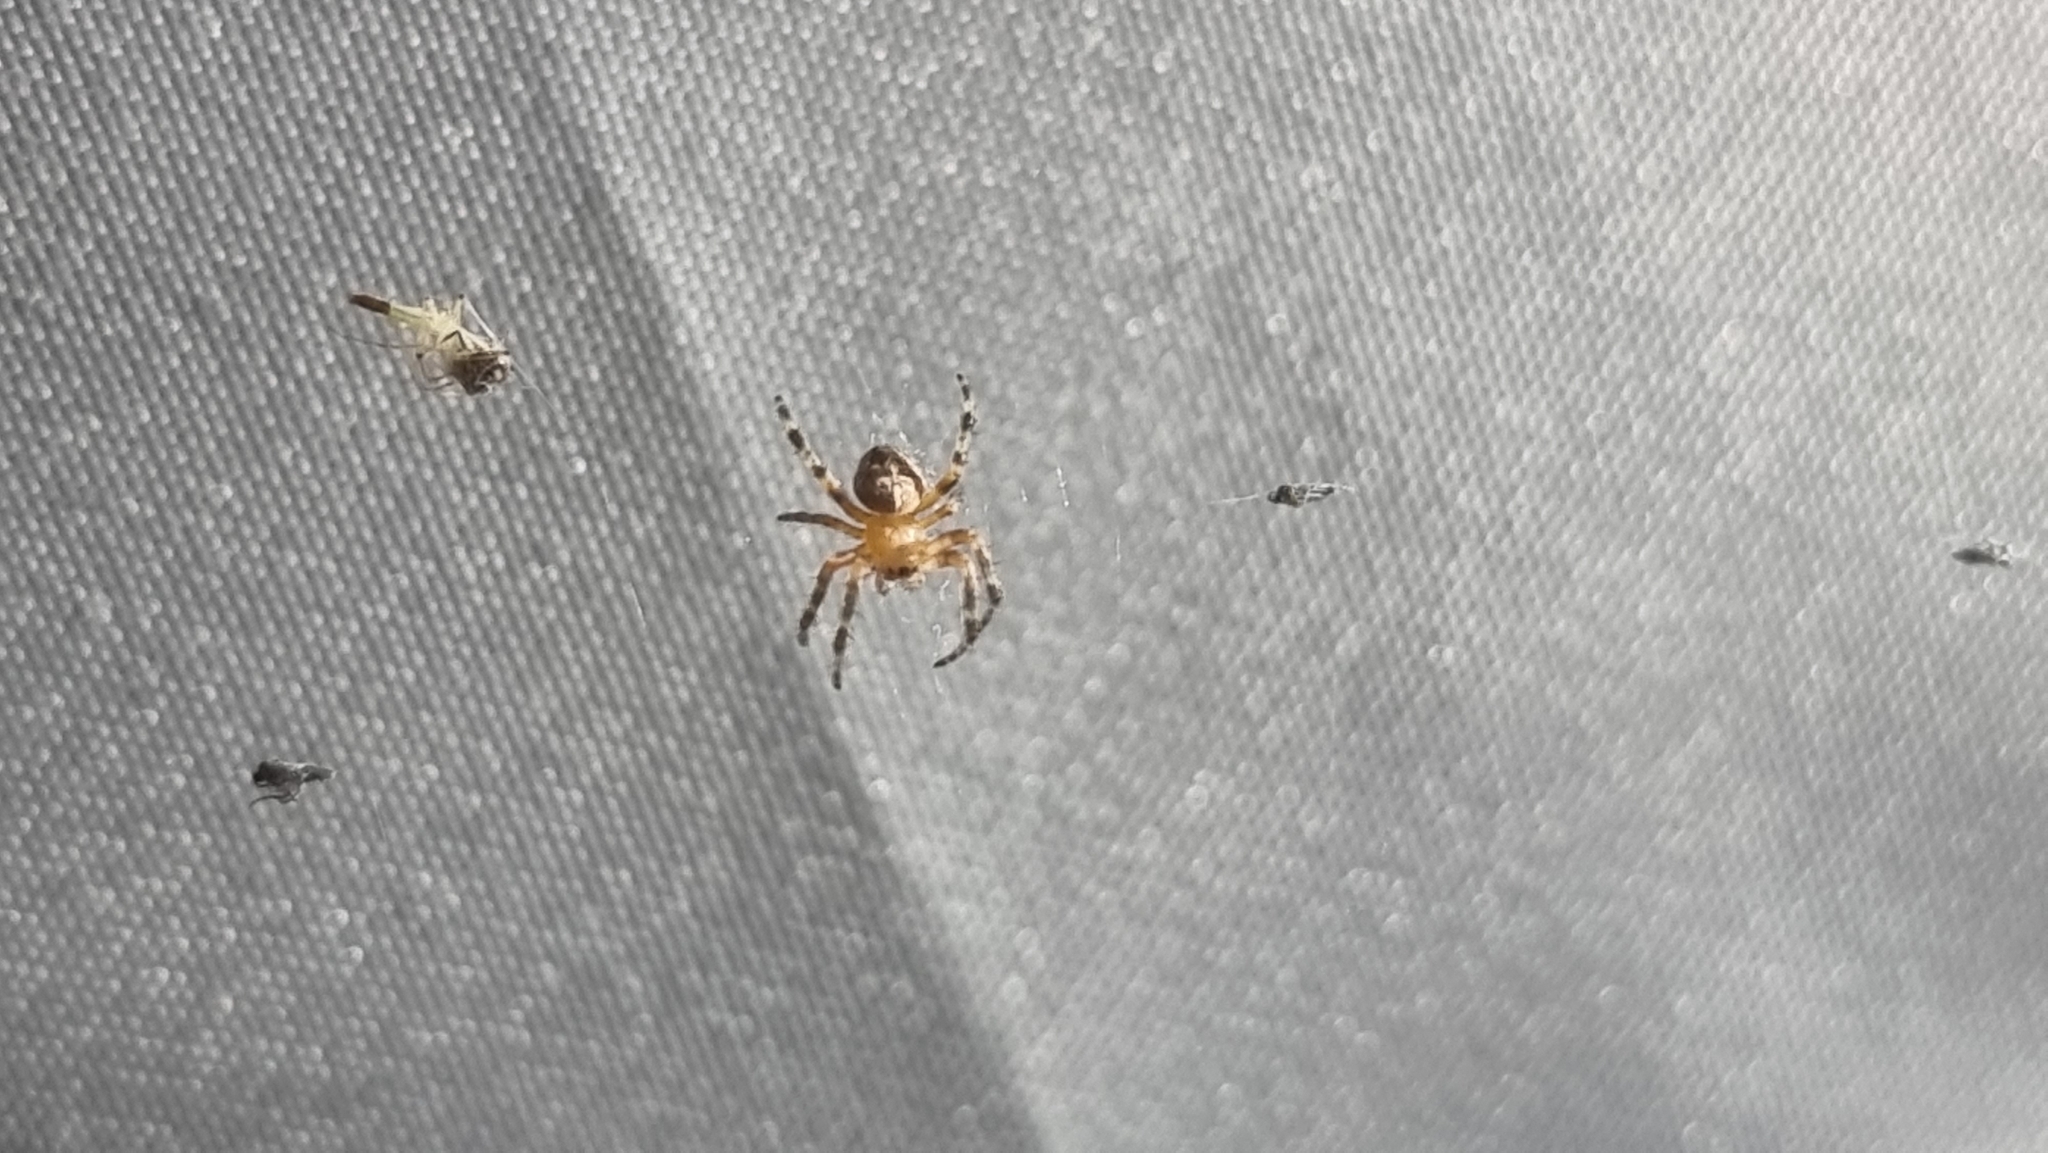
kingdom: Animalia
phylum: Arthropoda
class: Arachnida
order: Araneae
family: Araneidae
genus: Araneus
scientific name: Araneus diadematus
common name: Cross orbweaver
